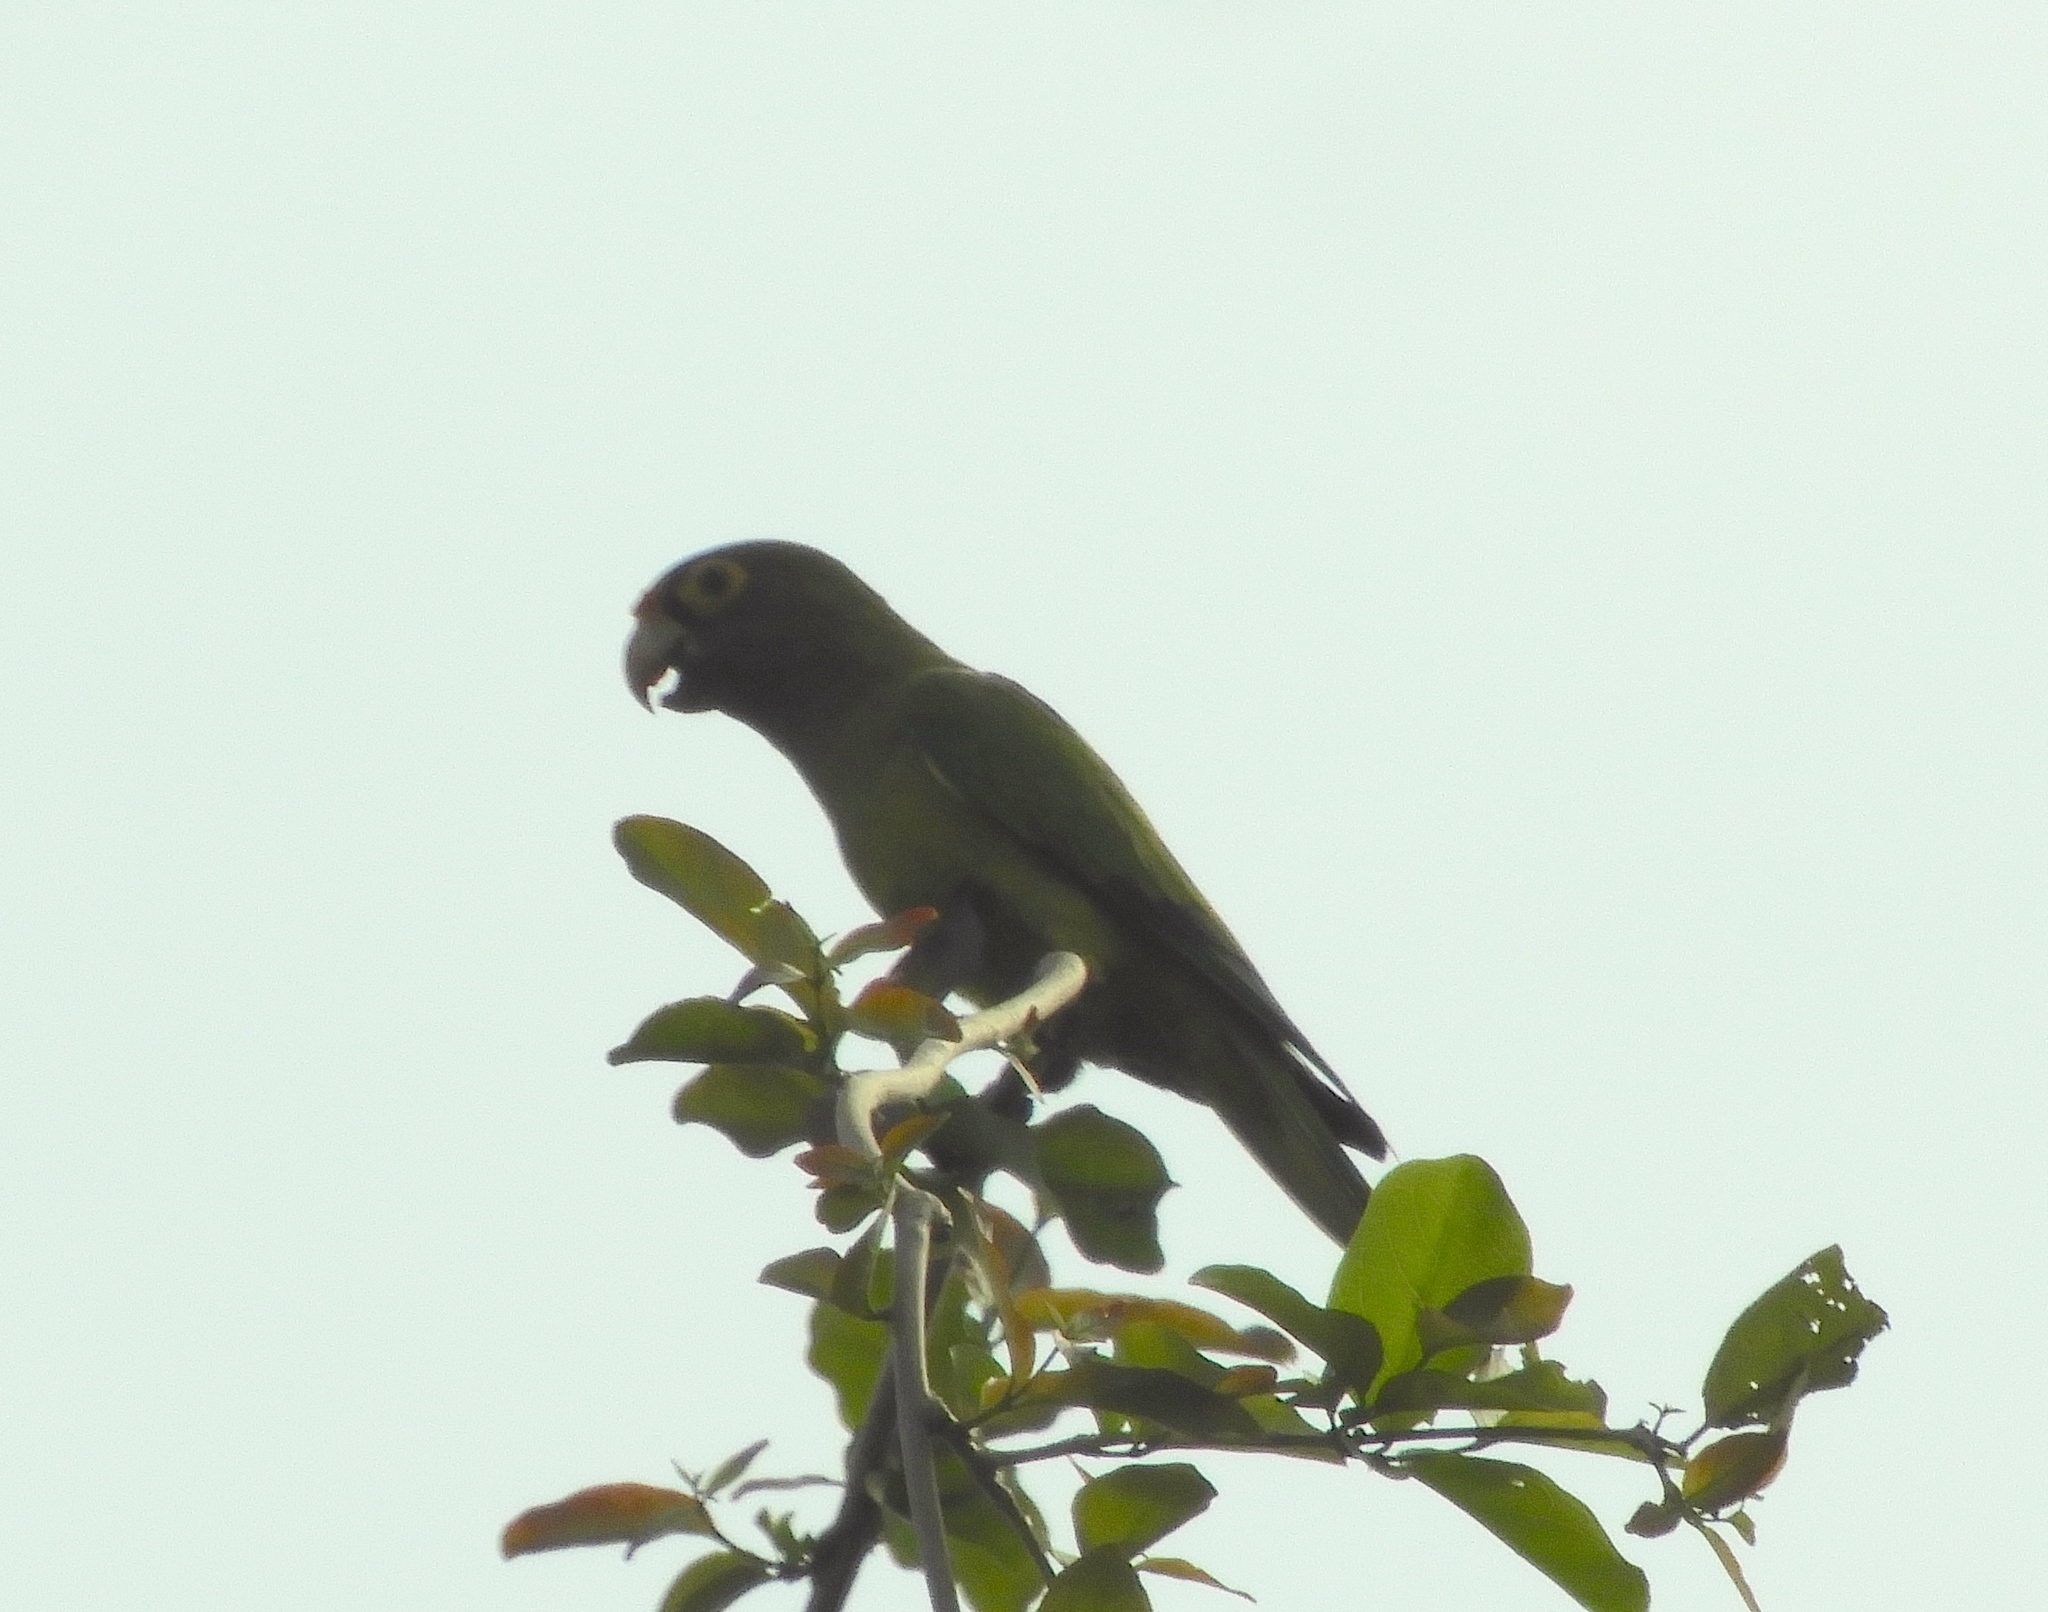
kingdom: Animalia
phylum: Chordata
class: Aves
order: Psittaciformes
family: Psittacidae
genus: Aratinga
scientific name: Aratinga canicularis
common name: Orange-fronted parakeet
